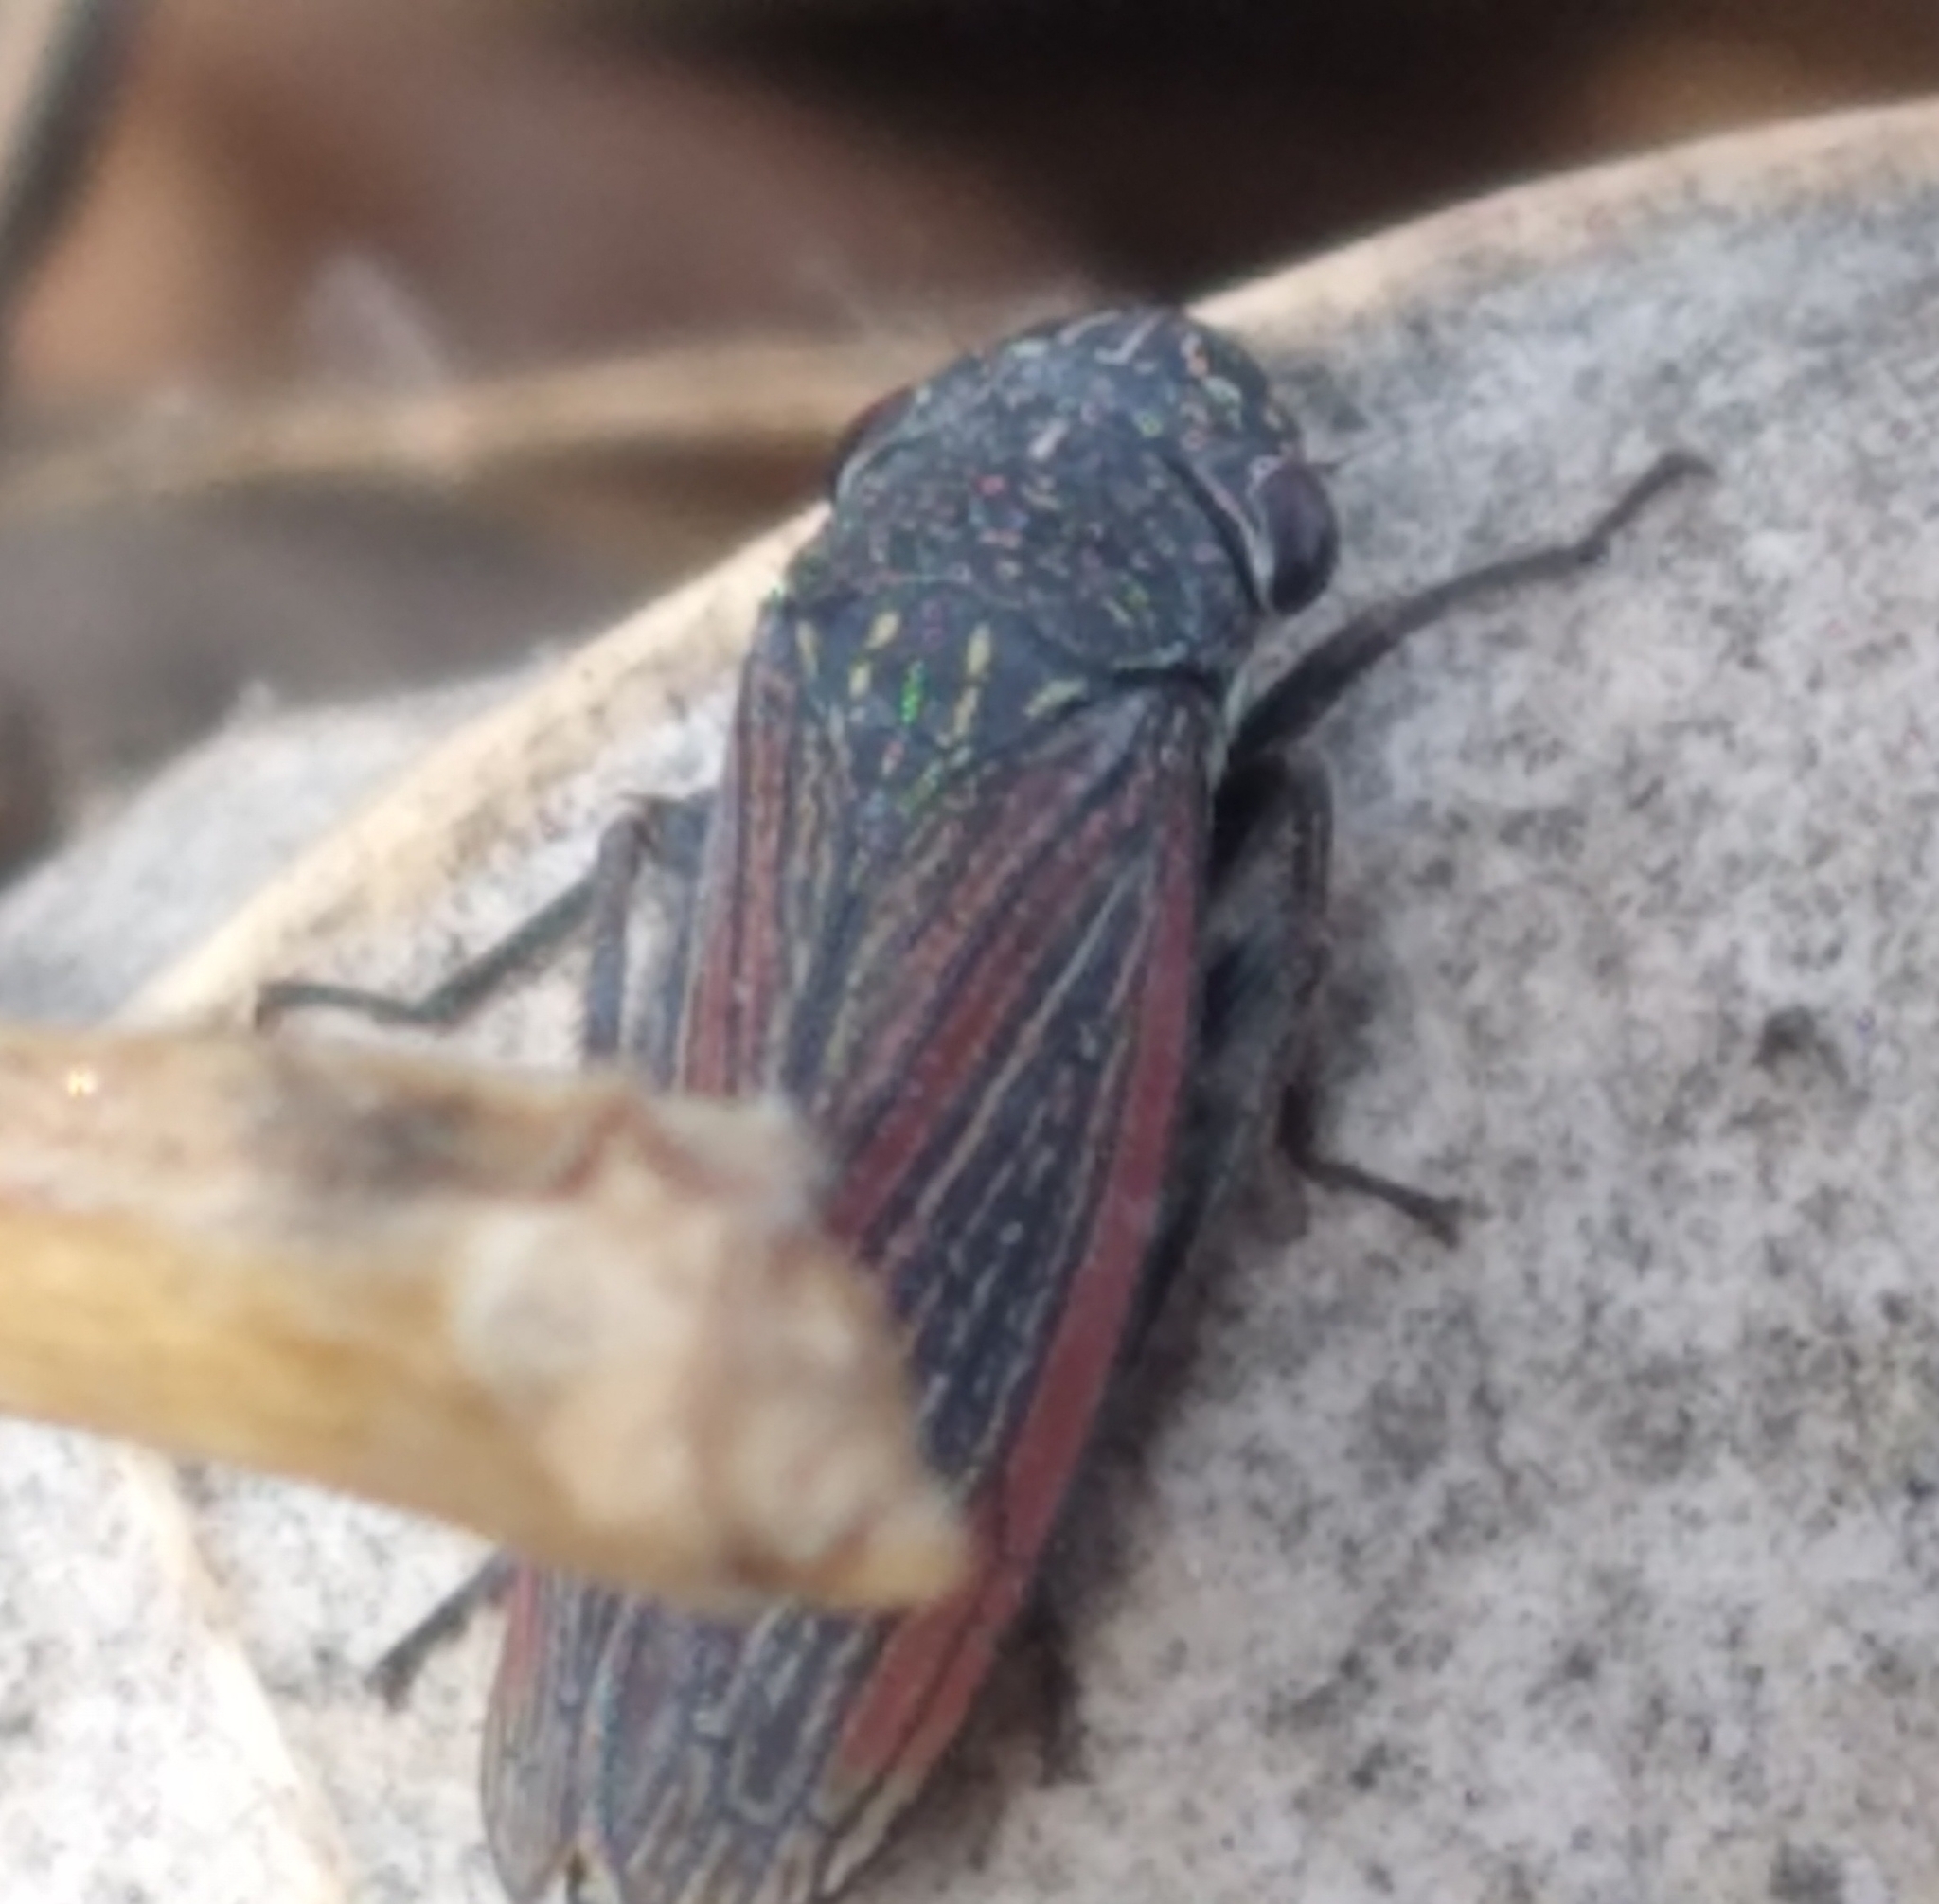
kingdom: Animalia
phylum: Arthropoda
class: Insecta
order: Hemiptera
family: Cicadellidae
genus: Cuerna
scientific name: Cuerna striata
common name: Striped leafhopper
